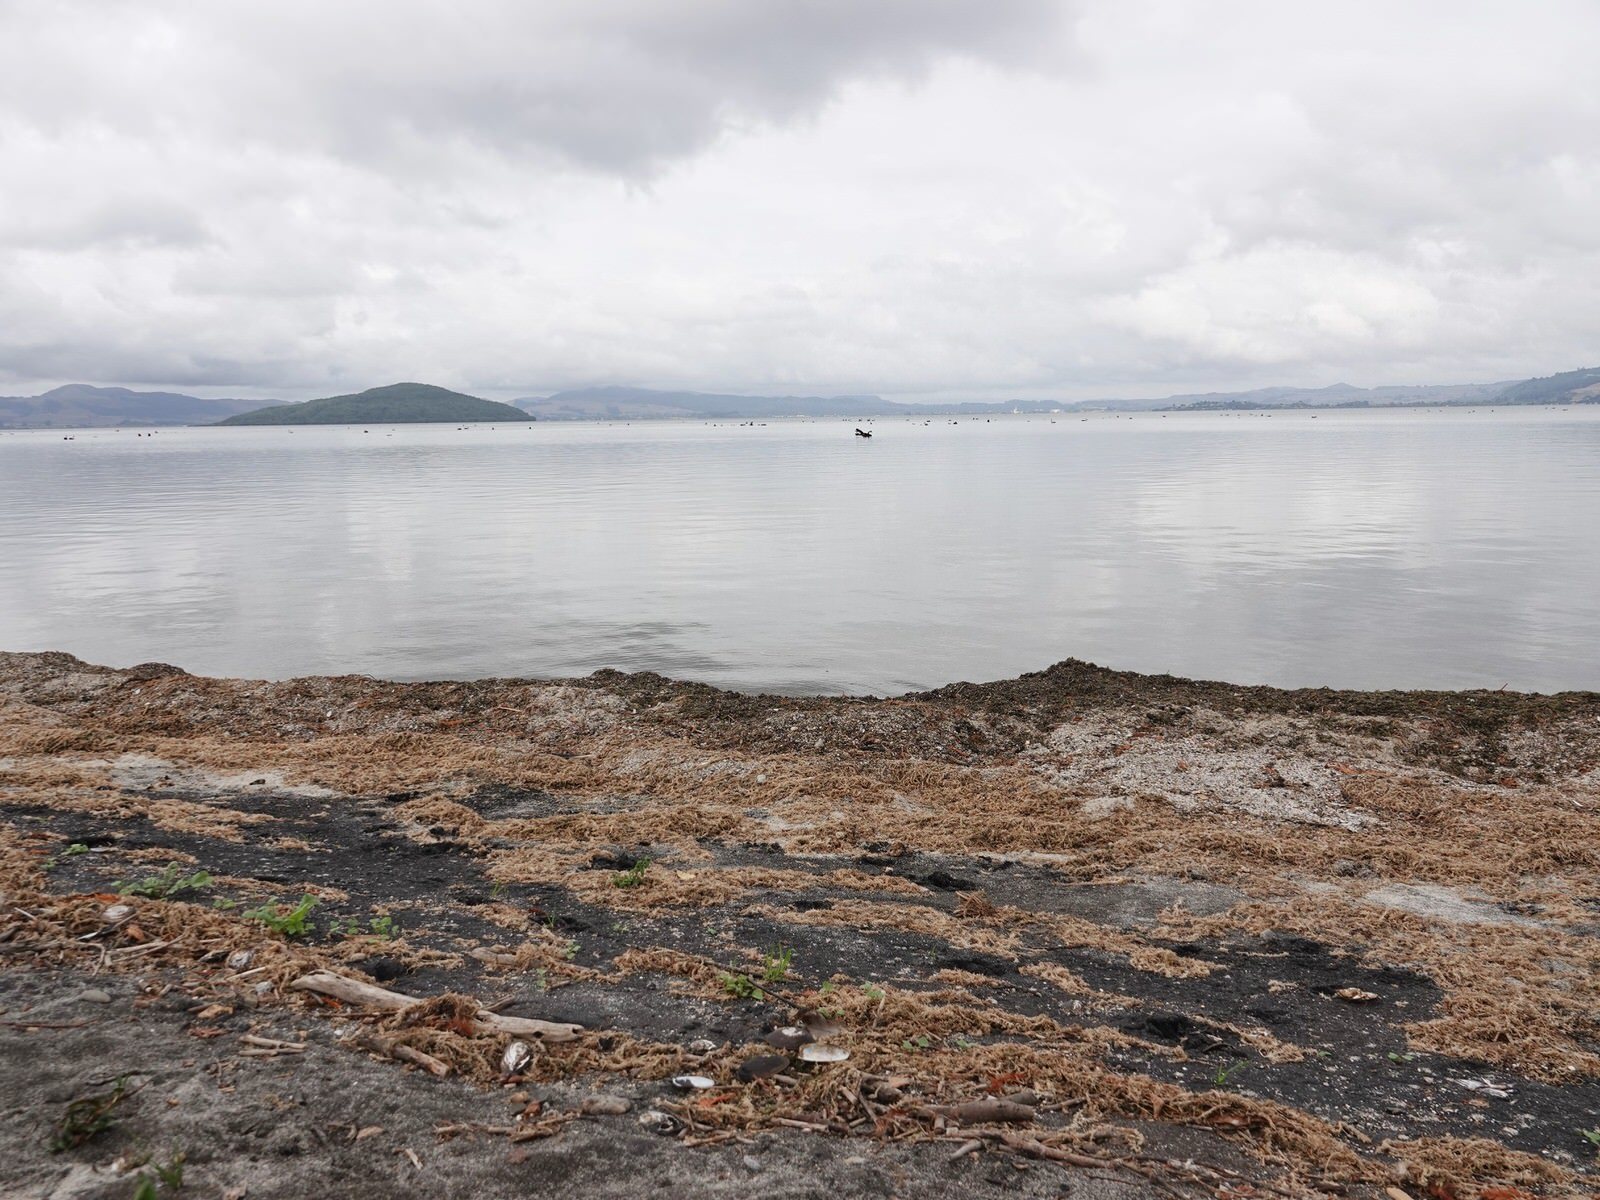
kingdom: Animalia
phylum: Mollusca
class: Bivalvia
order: Unionida
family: Hyriidae
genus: Echyridella
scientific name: Echyridella menziesii
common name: New zealand freshwater mussel
